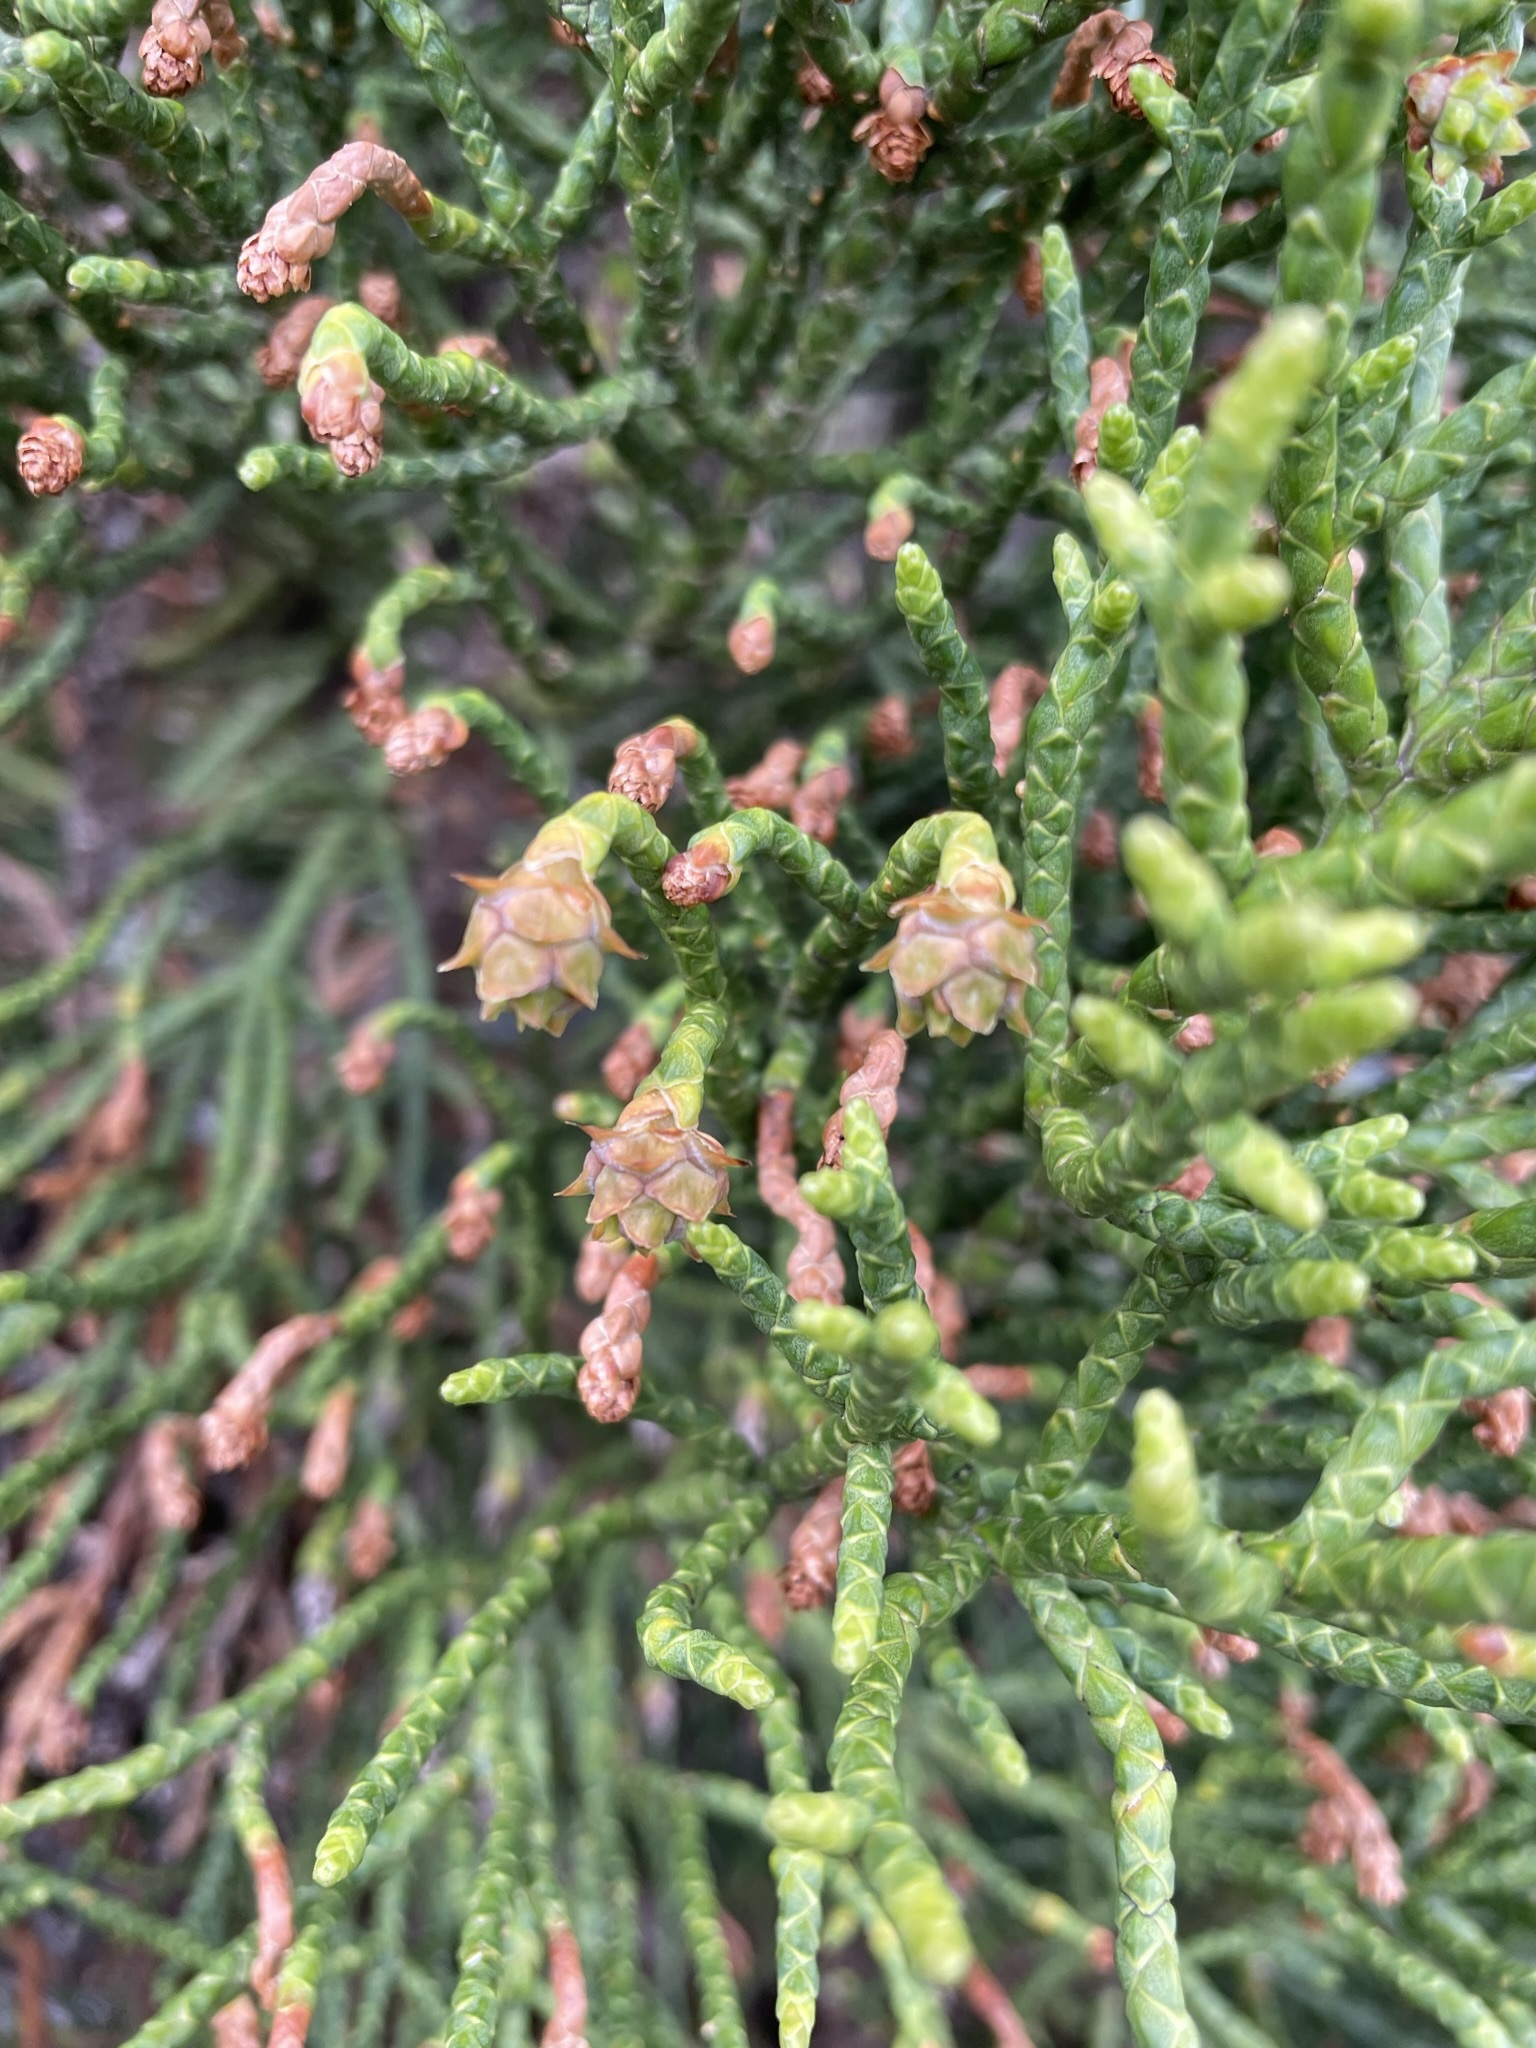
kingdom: Plantae
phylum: Tracheophyta
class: Pinopsida
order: Pinales
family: Cupressaceae
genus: Athrotaxis
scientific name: Athrotaxis cupressoides
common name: Tasmanian pencil pine
